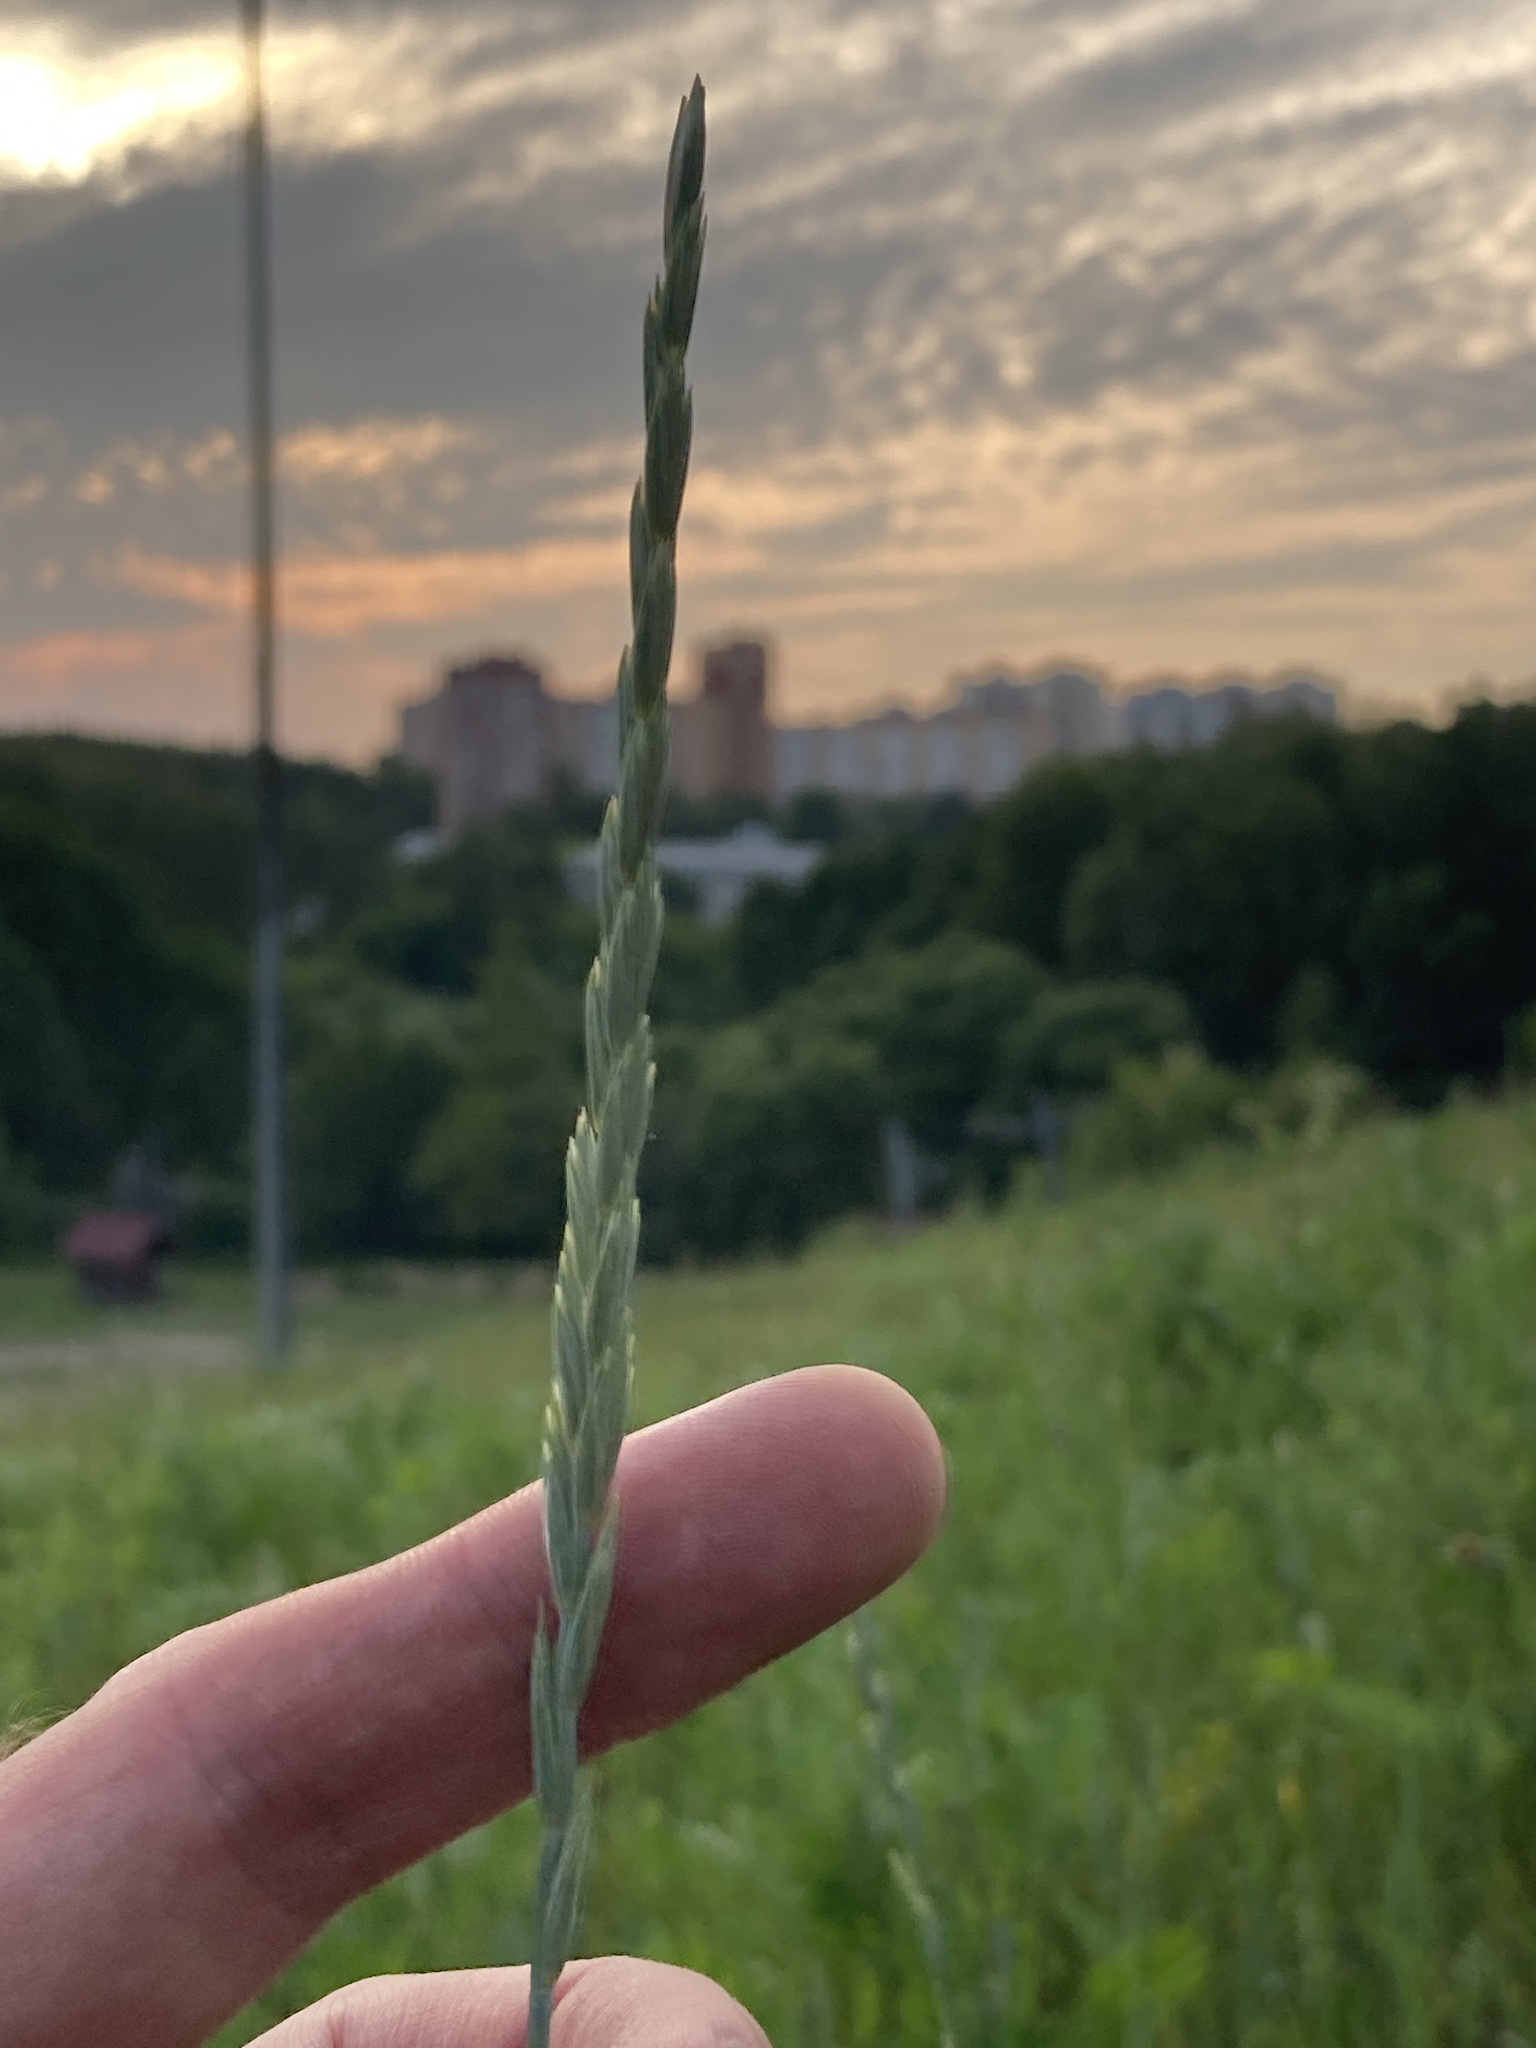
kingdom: Plantae
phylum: Tracheophyta
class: Liliopsida
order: Poales
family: Poaceae
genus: Elymus
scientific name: Elymus repens
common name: Quackgrass
